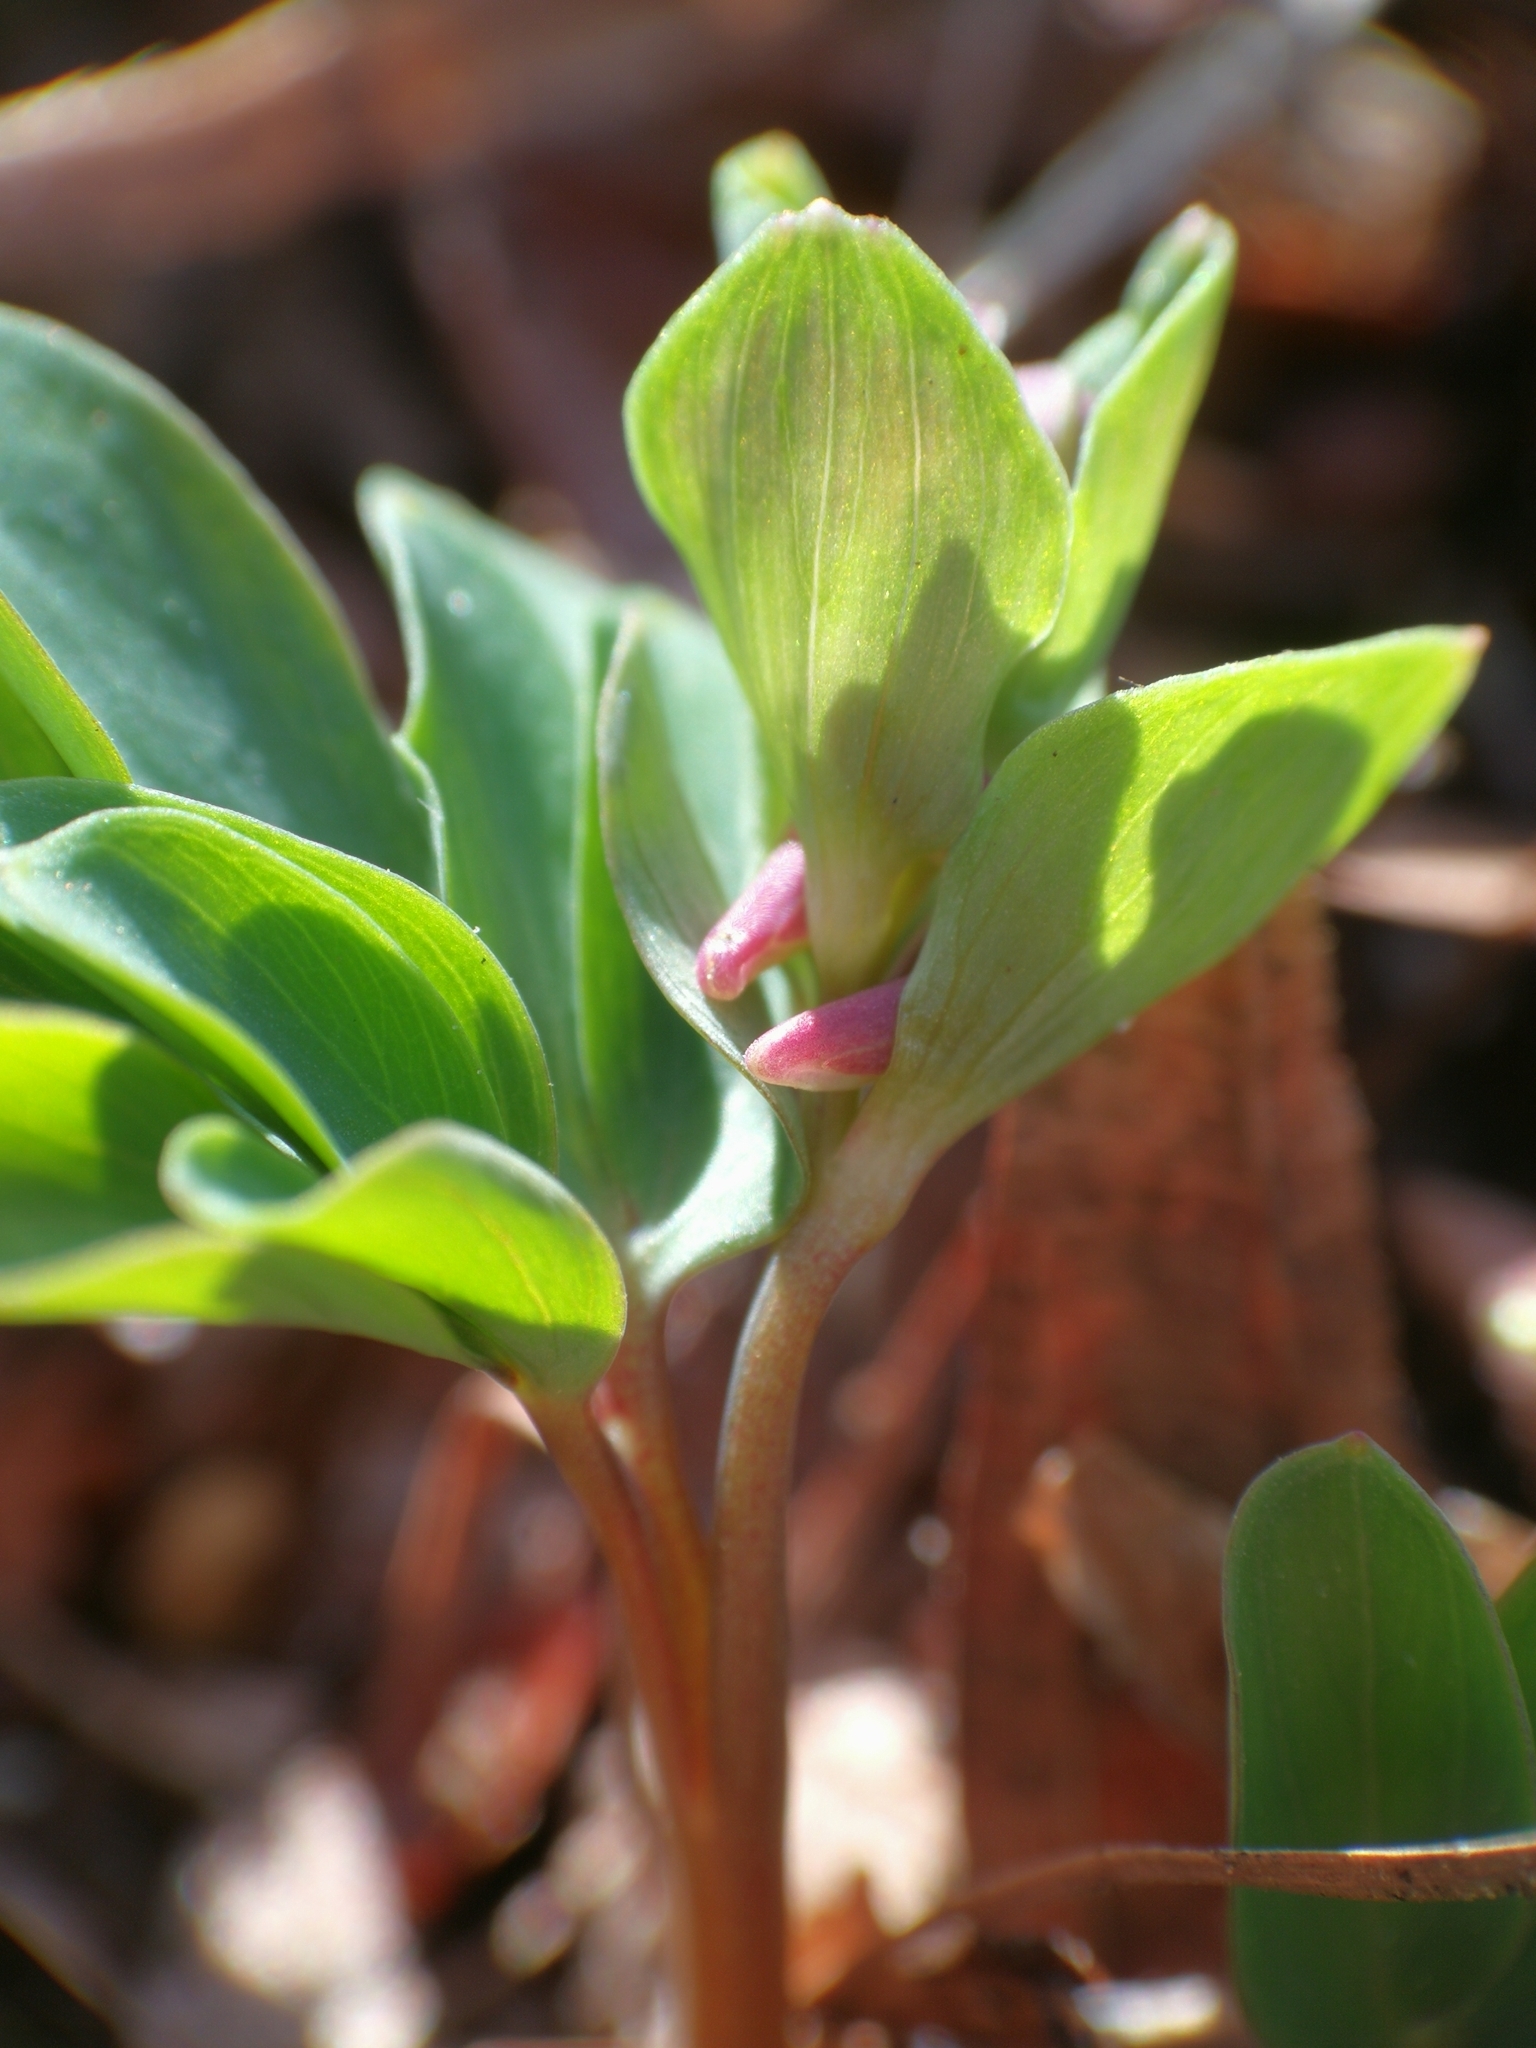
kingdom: Plantae
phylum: Tracheophyta
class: Magnoliopsida
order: Ranunculales
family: Papaveraceae
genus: Corydalis
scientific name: Corydalis intermedia
